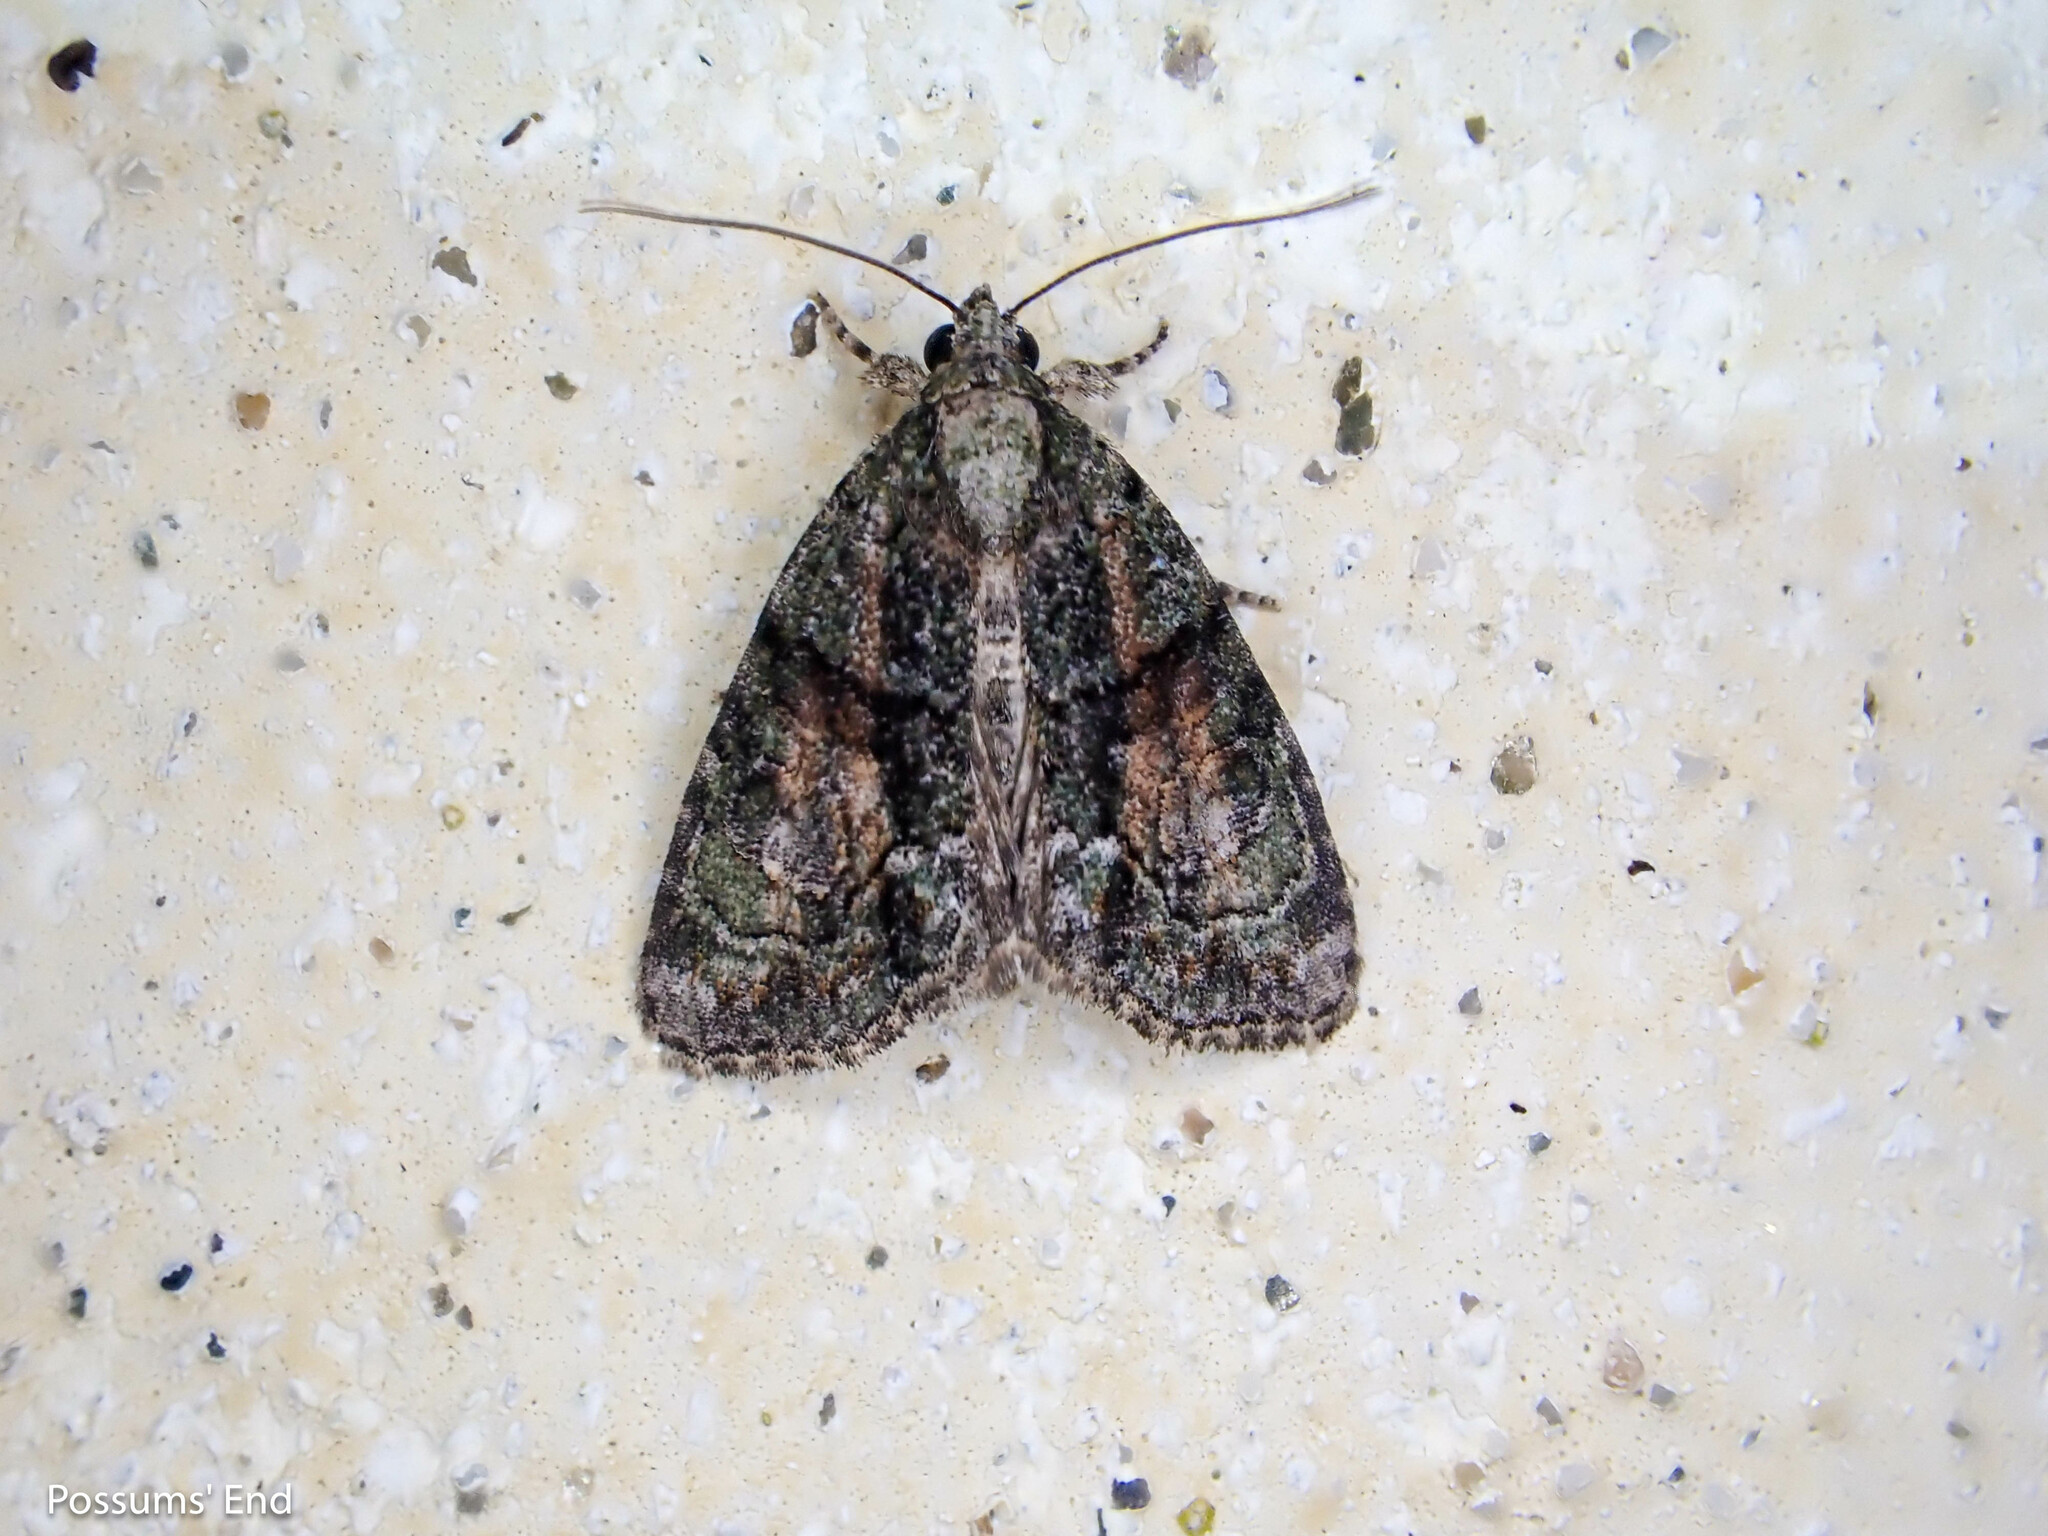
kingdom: Animalia
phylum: Arthropoda
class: Insecta
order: Lepidoptera
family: Noctuidae
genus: Cryphia
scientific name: Cryphia algae
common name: Tree-lichen beauty
